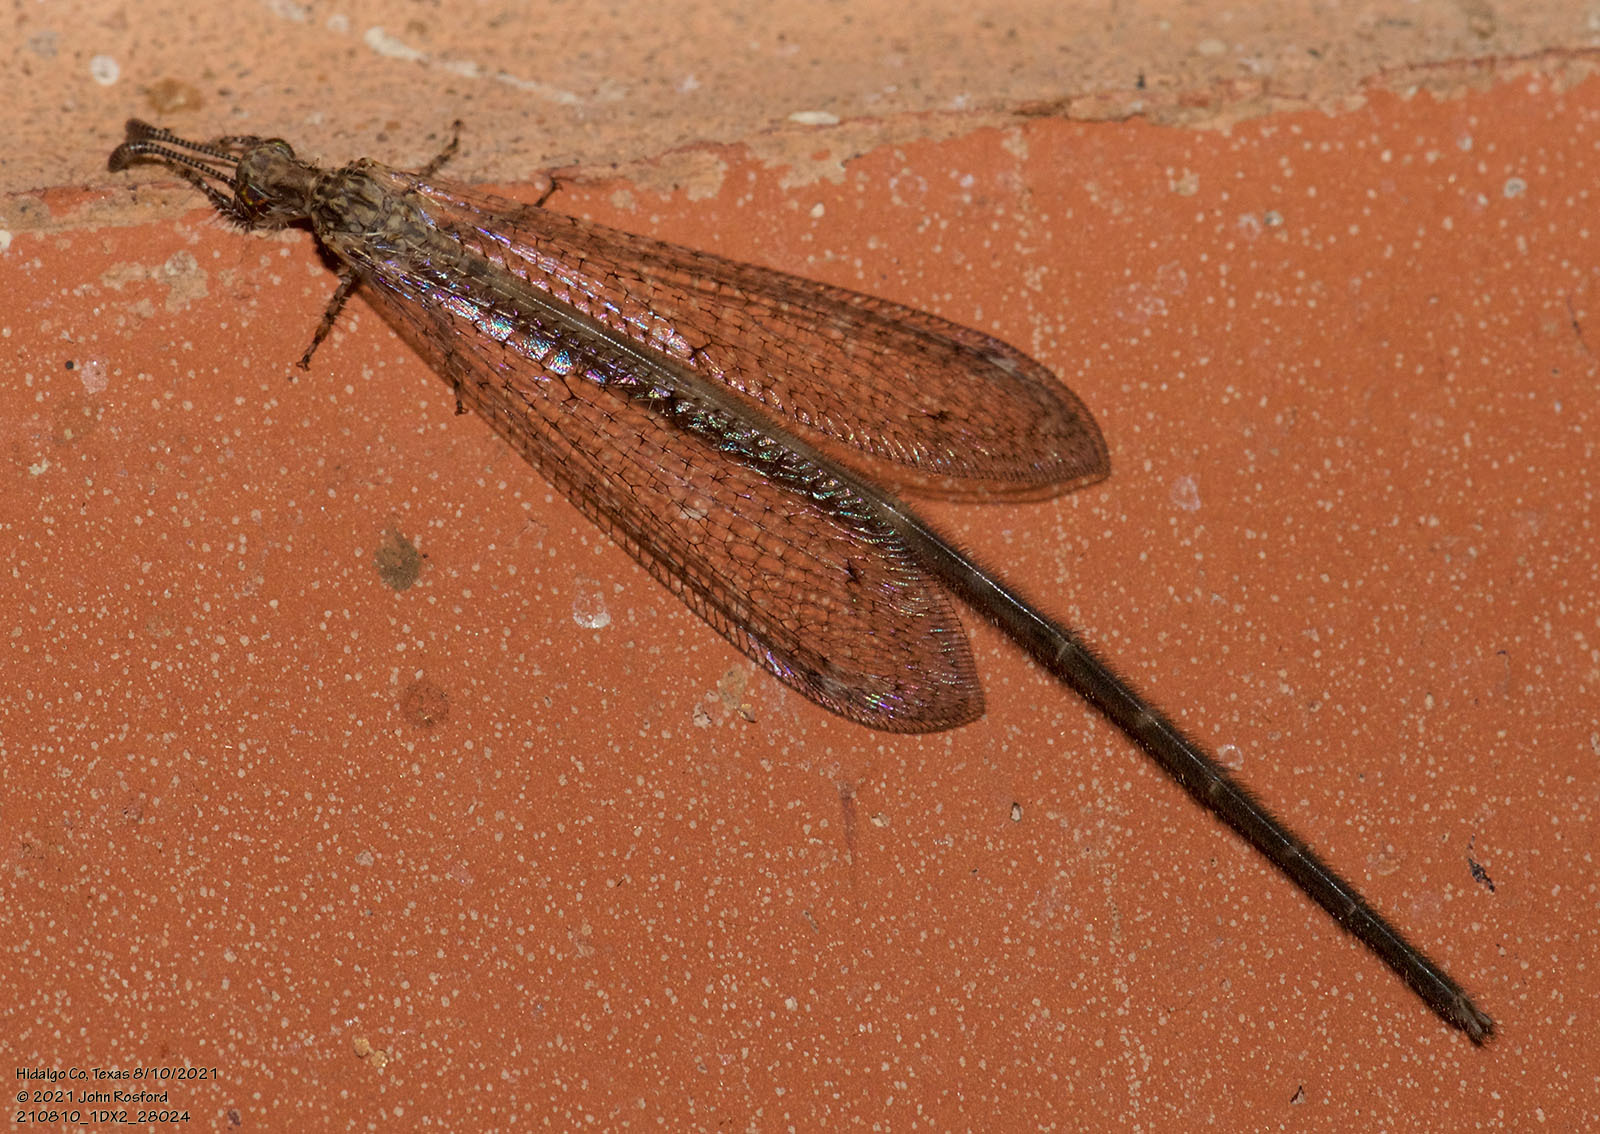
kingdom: Animalia
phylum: Arthropoda
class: Insecta
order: Neuroptera
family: Myrmeleontidae
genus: Peruveleon
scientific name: Peruveleon dorsalis
